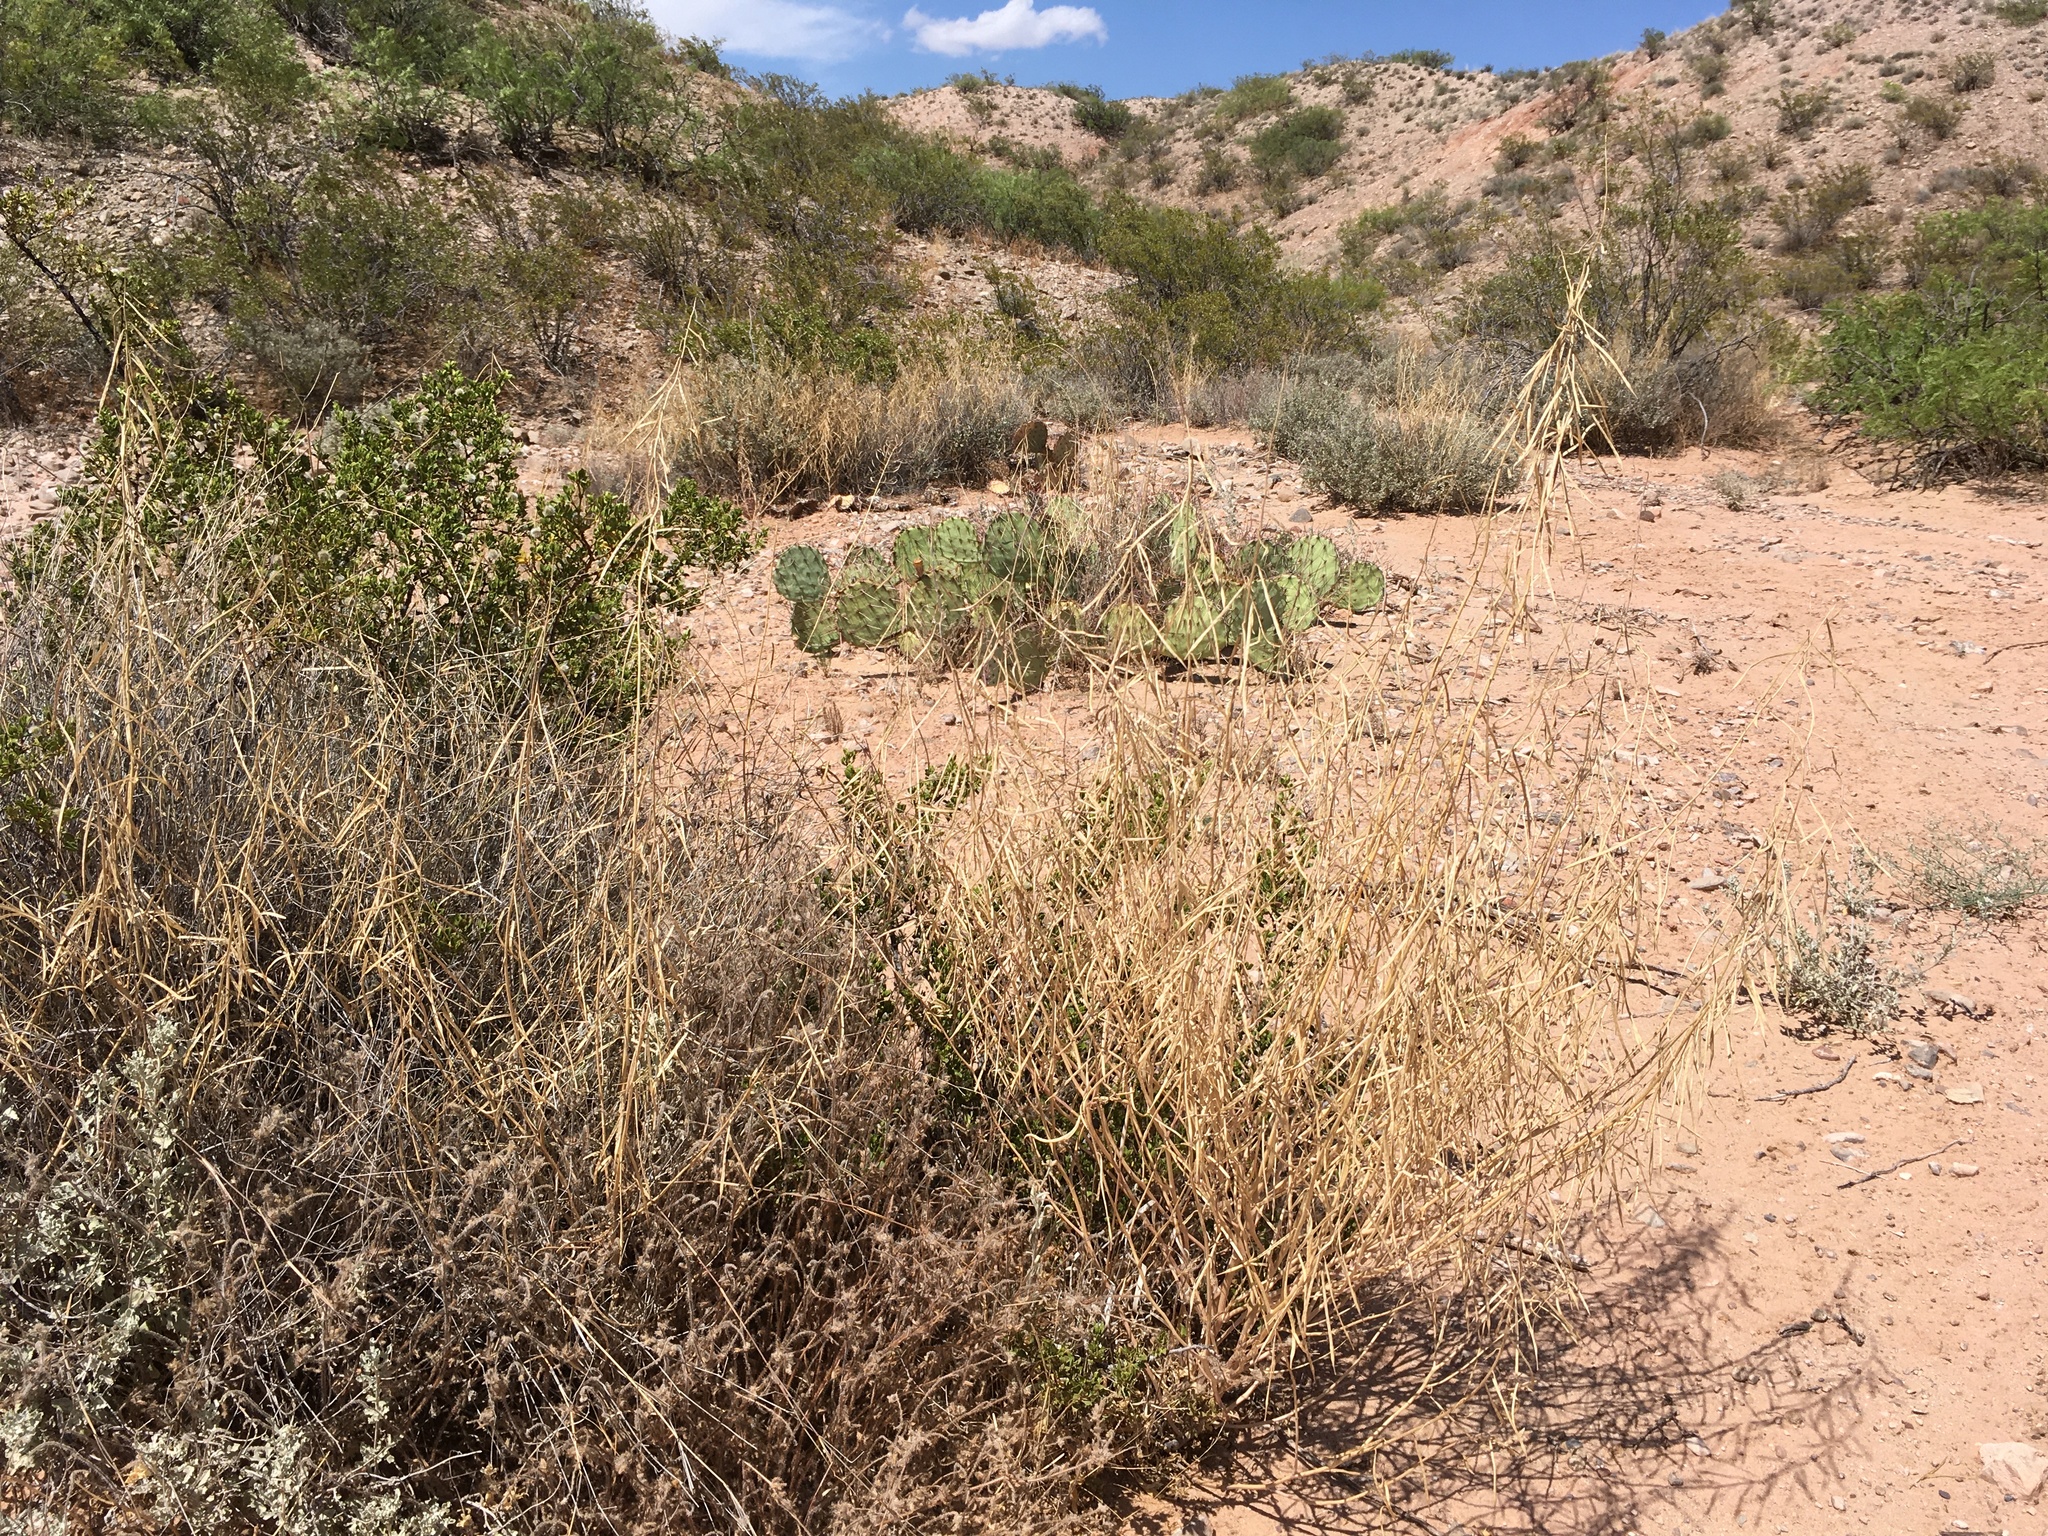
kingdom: Plantae
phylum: Tracheophyta
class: Magnoliopsida
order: Brassicales
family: Brassicaceae
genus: Streptanthus
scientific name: Streptanthus longirostris
